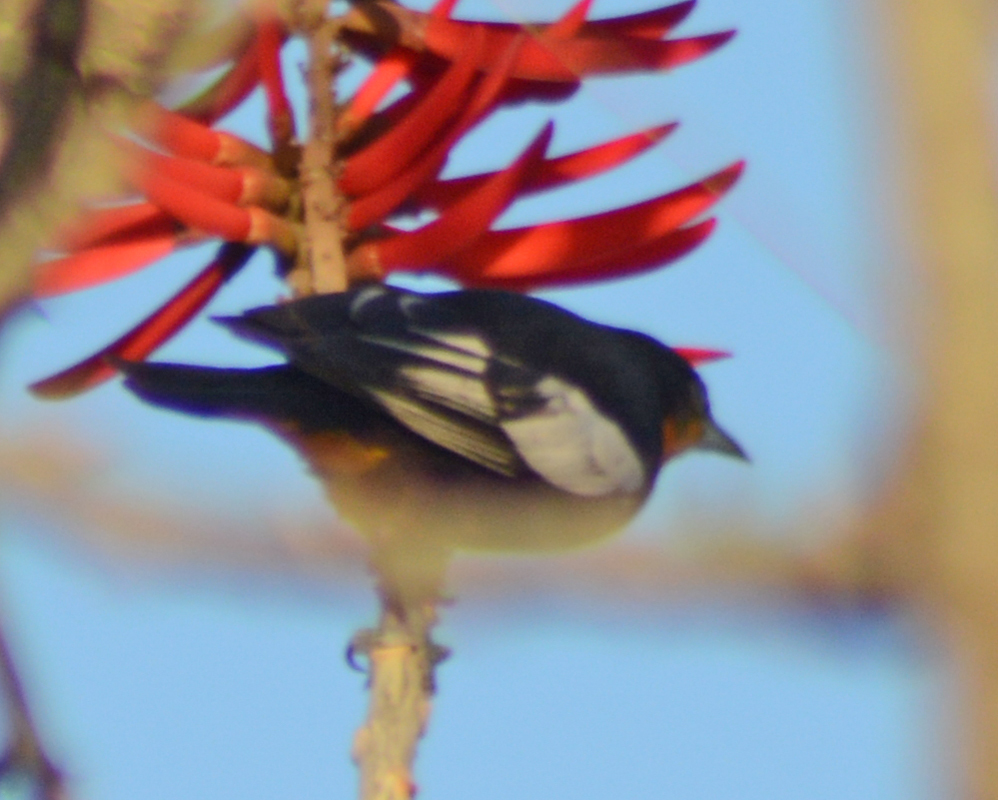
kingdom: Animalia
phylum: Chordata
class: Aves
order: Passeriformes
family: Icteridae
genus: Icterus
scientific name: Icterus abeillei
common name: Black-backed oriole
